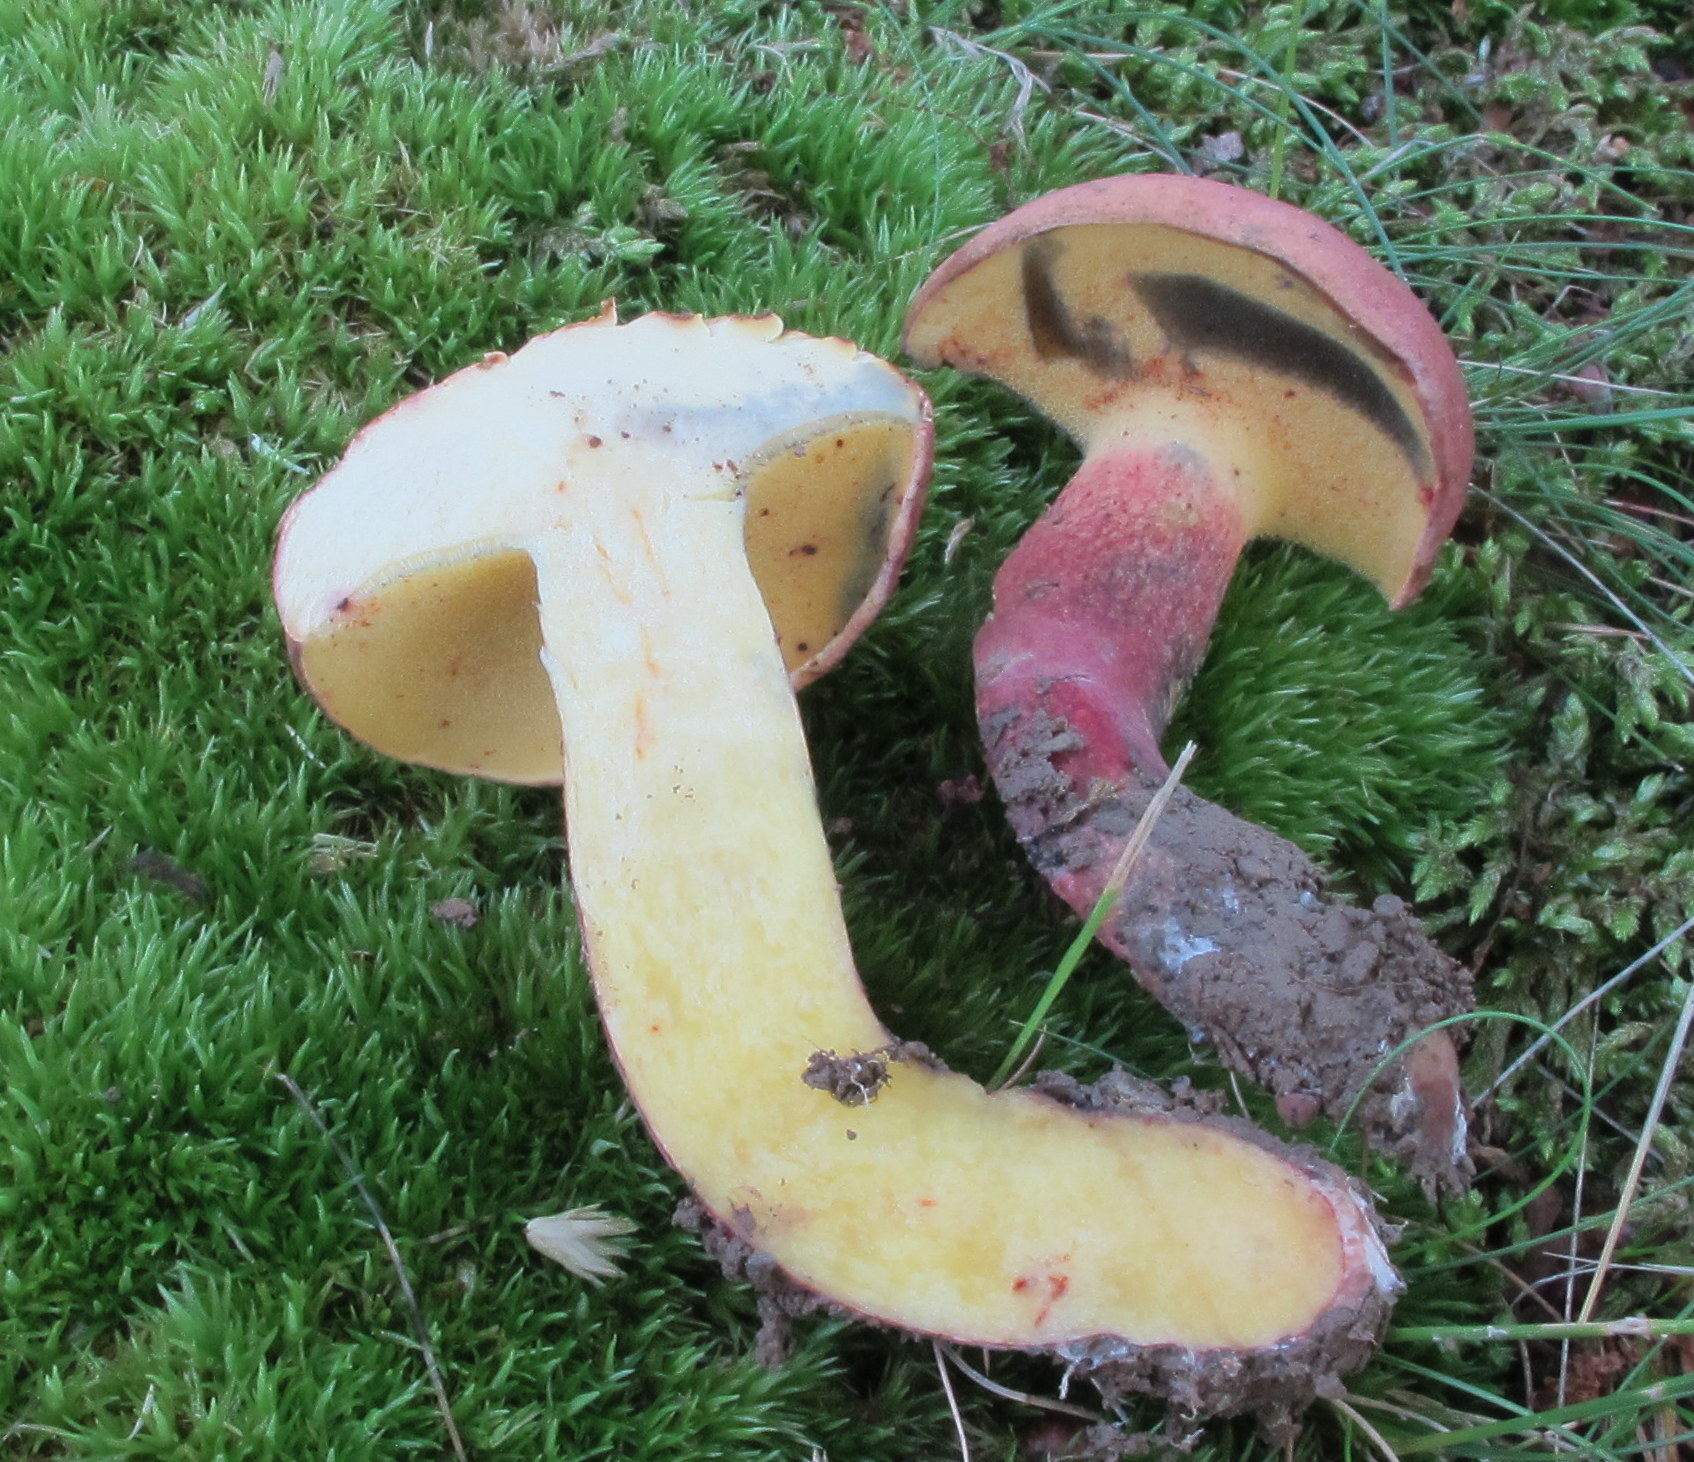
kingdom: Fungi
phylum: Basidiomycota
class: Agaricomycetes
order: Boletales
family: Boletaceae
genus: Baorangia
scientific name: Baorangia bicolor
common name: Two-colored bolete
